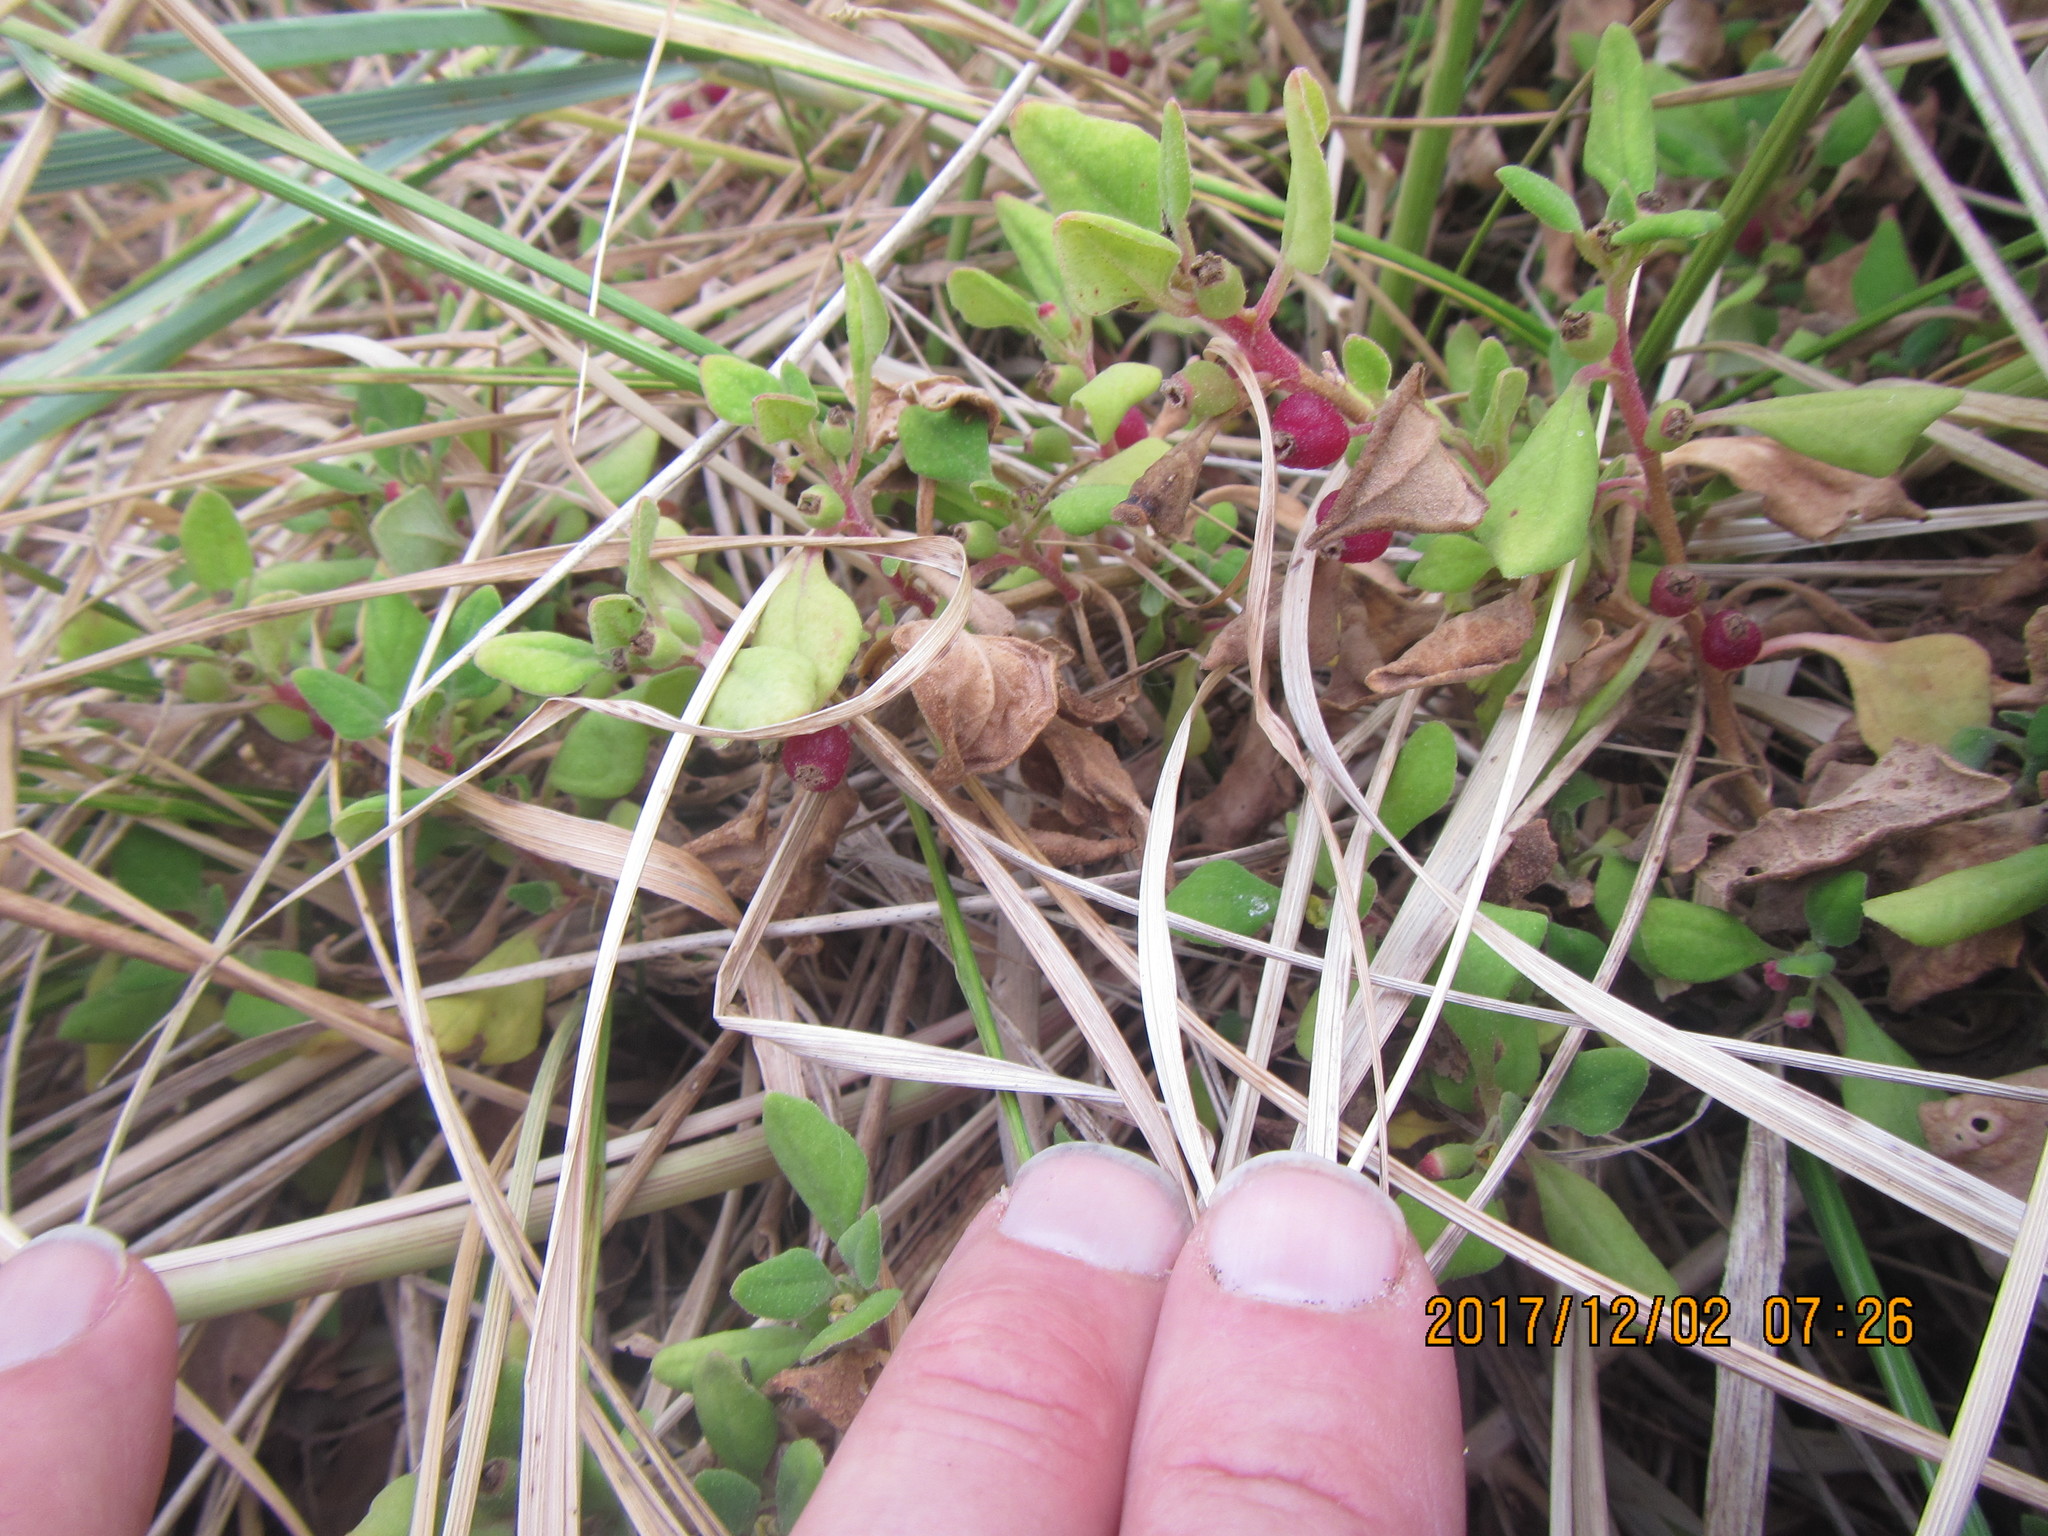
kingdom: Plantae
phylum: Tracheophyta
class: Magnoliopsida
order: Caryophyllales
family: Aizoaceae
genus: Tetragonia
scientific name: Tetragonia implexicoma
